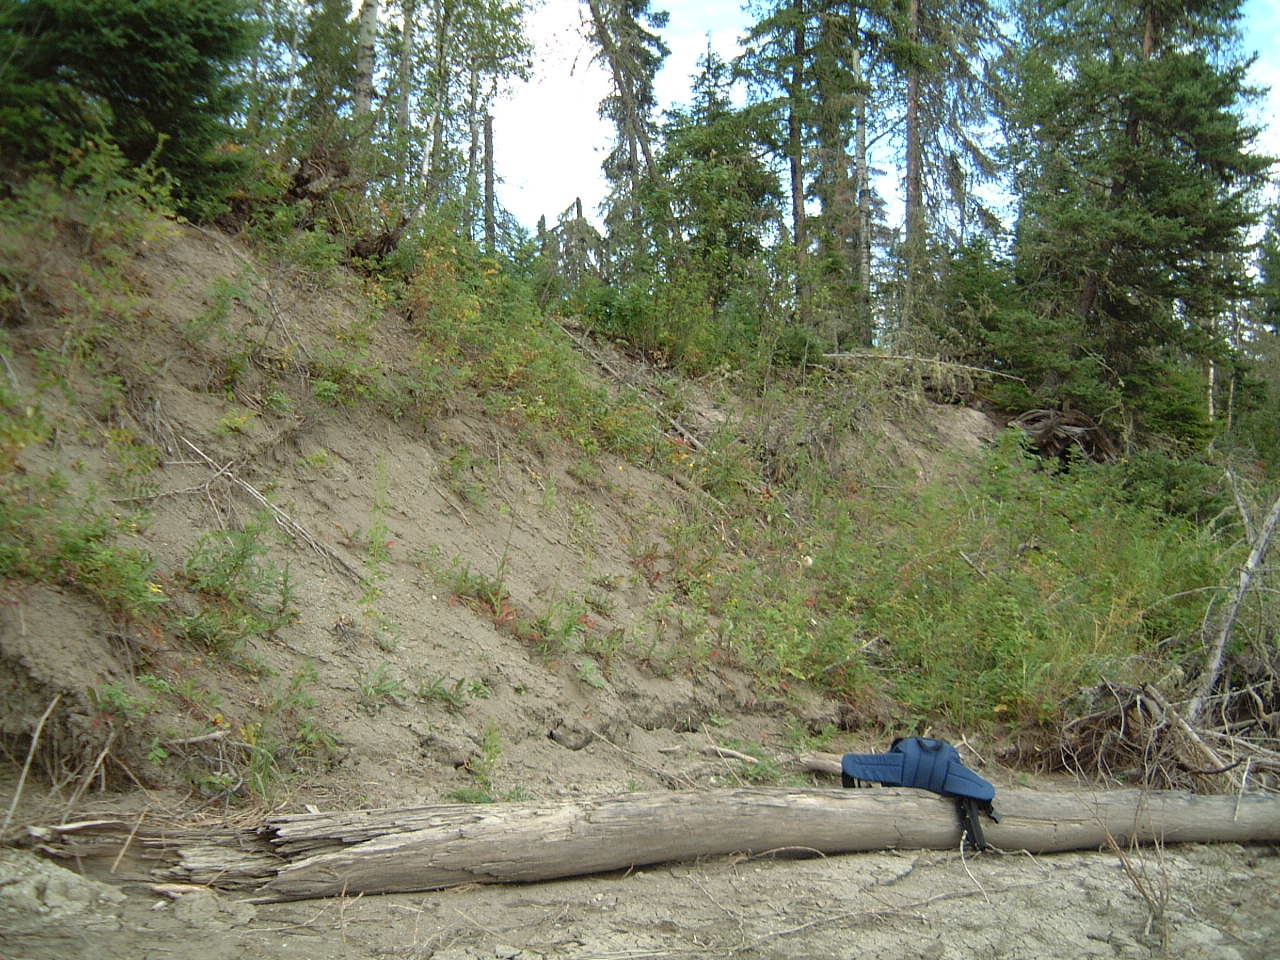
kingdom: Plantae
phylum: Tracheophyta
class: Magnoliopsida
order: Fabales
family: Fabaceae
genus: Glycyrrhiza
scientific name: Glycyrrhiza lepidota
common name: American liquorice
